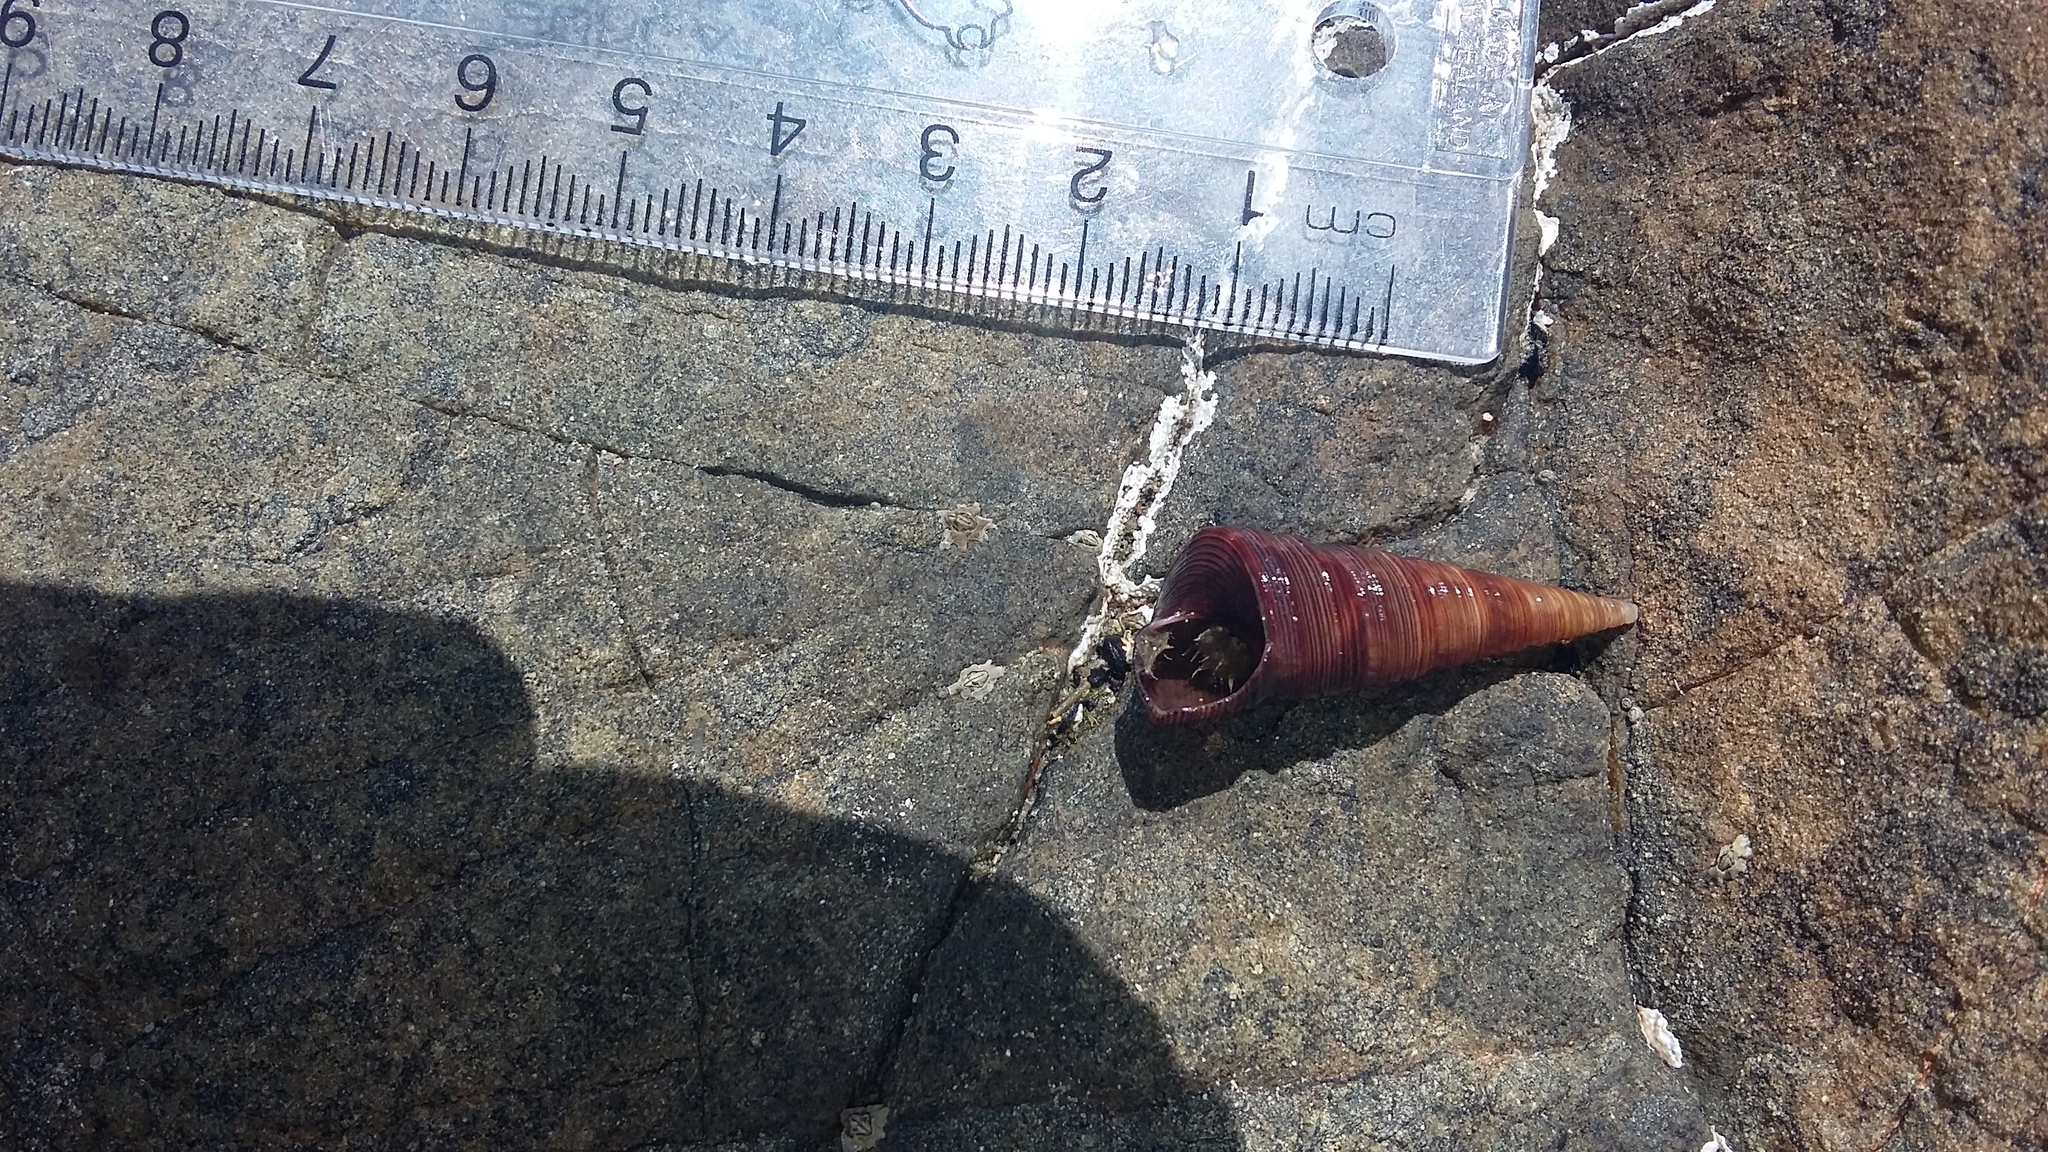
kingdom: Animalia
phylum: Mollusca
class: Gastropoda
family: Turritellidae
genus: Maoricolpus
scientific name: Maoricolpus roseus
